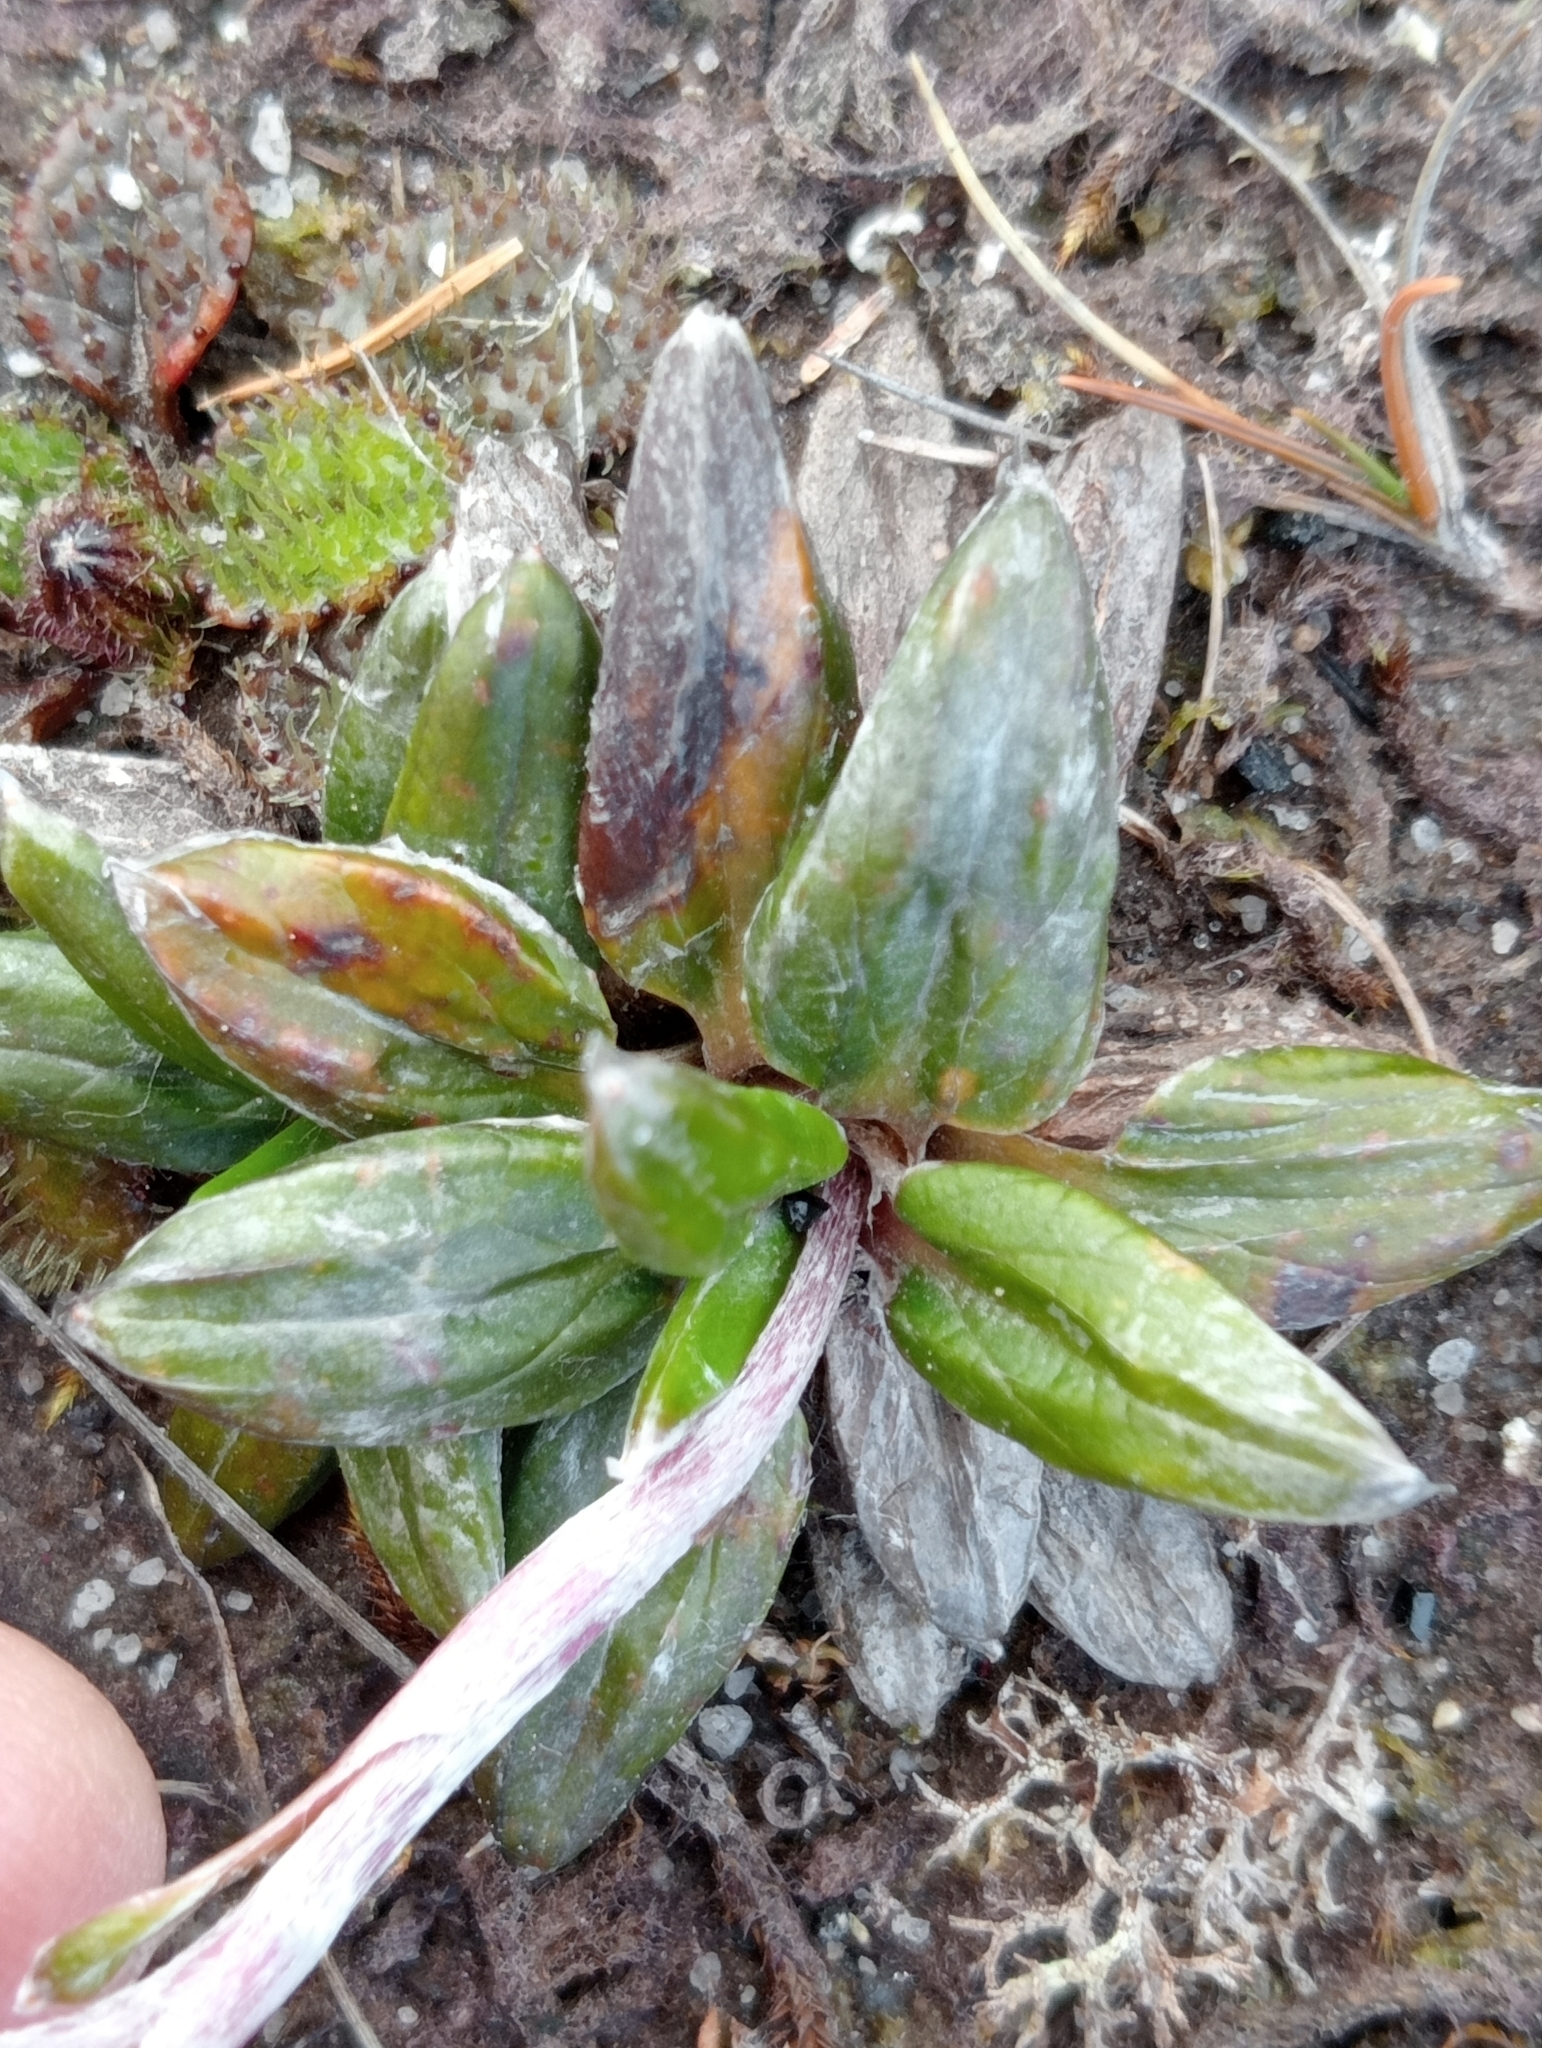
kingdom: Plantae
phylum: Tracheophyta
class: Magnoliopsida
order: Asterales
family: Asteraceae
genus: Celmisia
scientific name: Celmisia dubia
